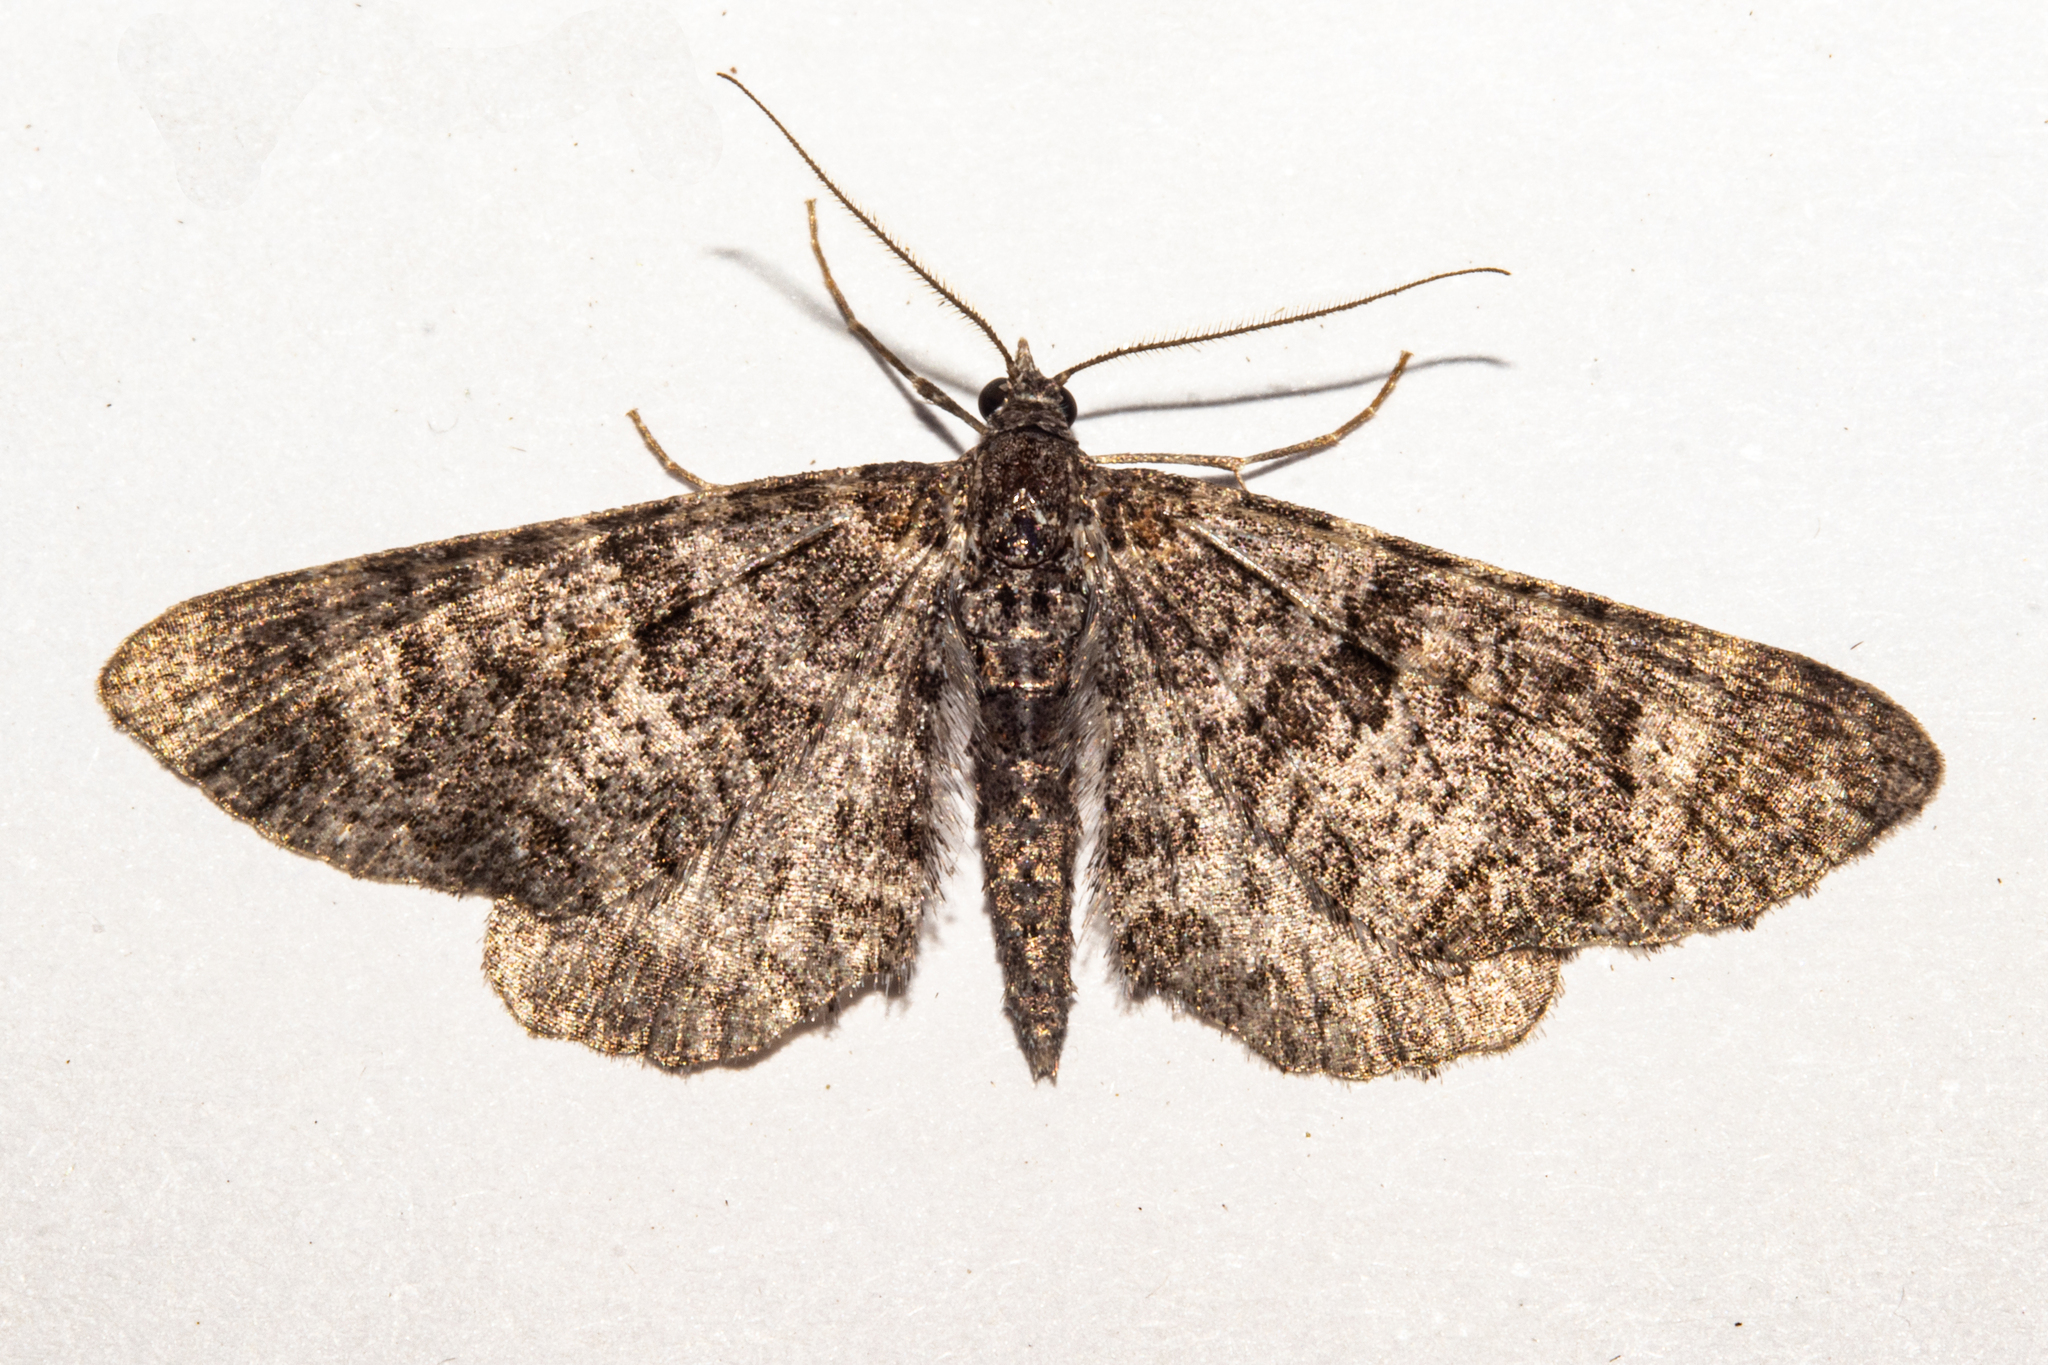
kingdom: Animalia
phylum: Arthropoda
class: Insecta
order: Lepidoptera
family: Geometridae
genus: Pasiphila
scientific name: Pasiphila halianthes
